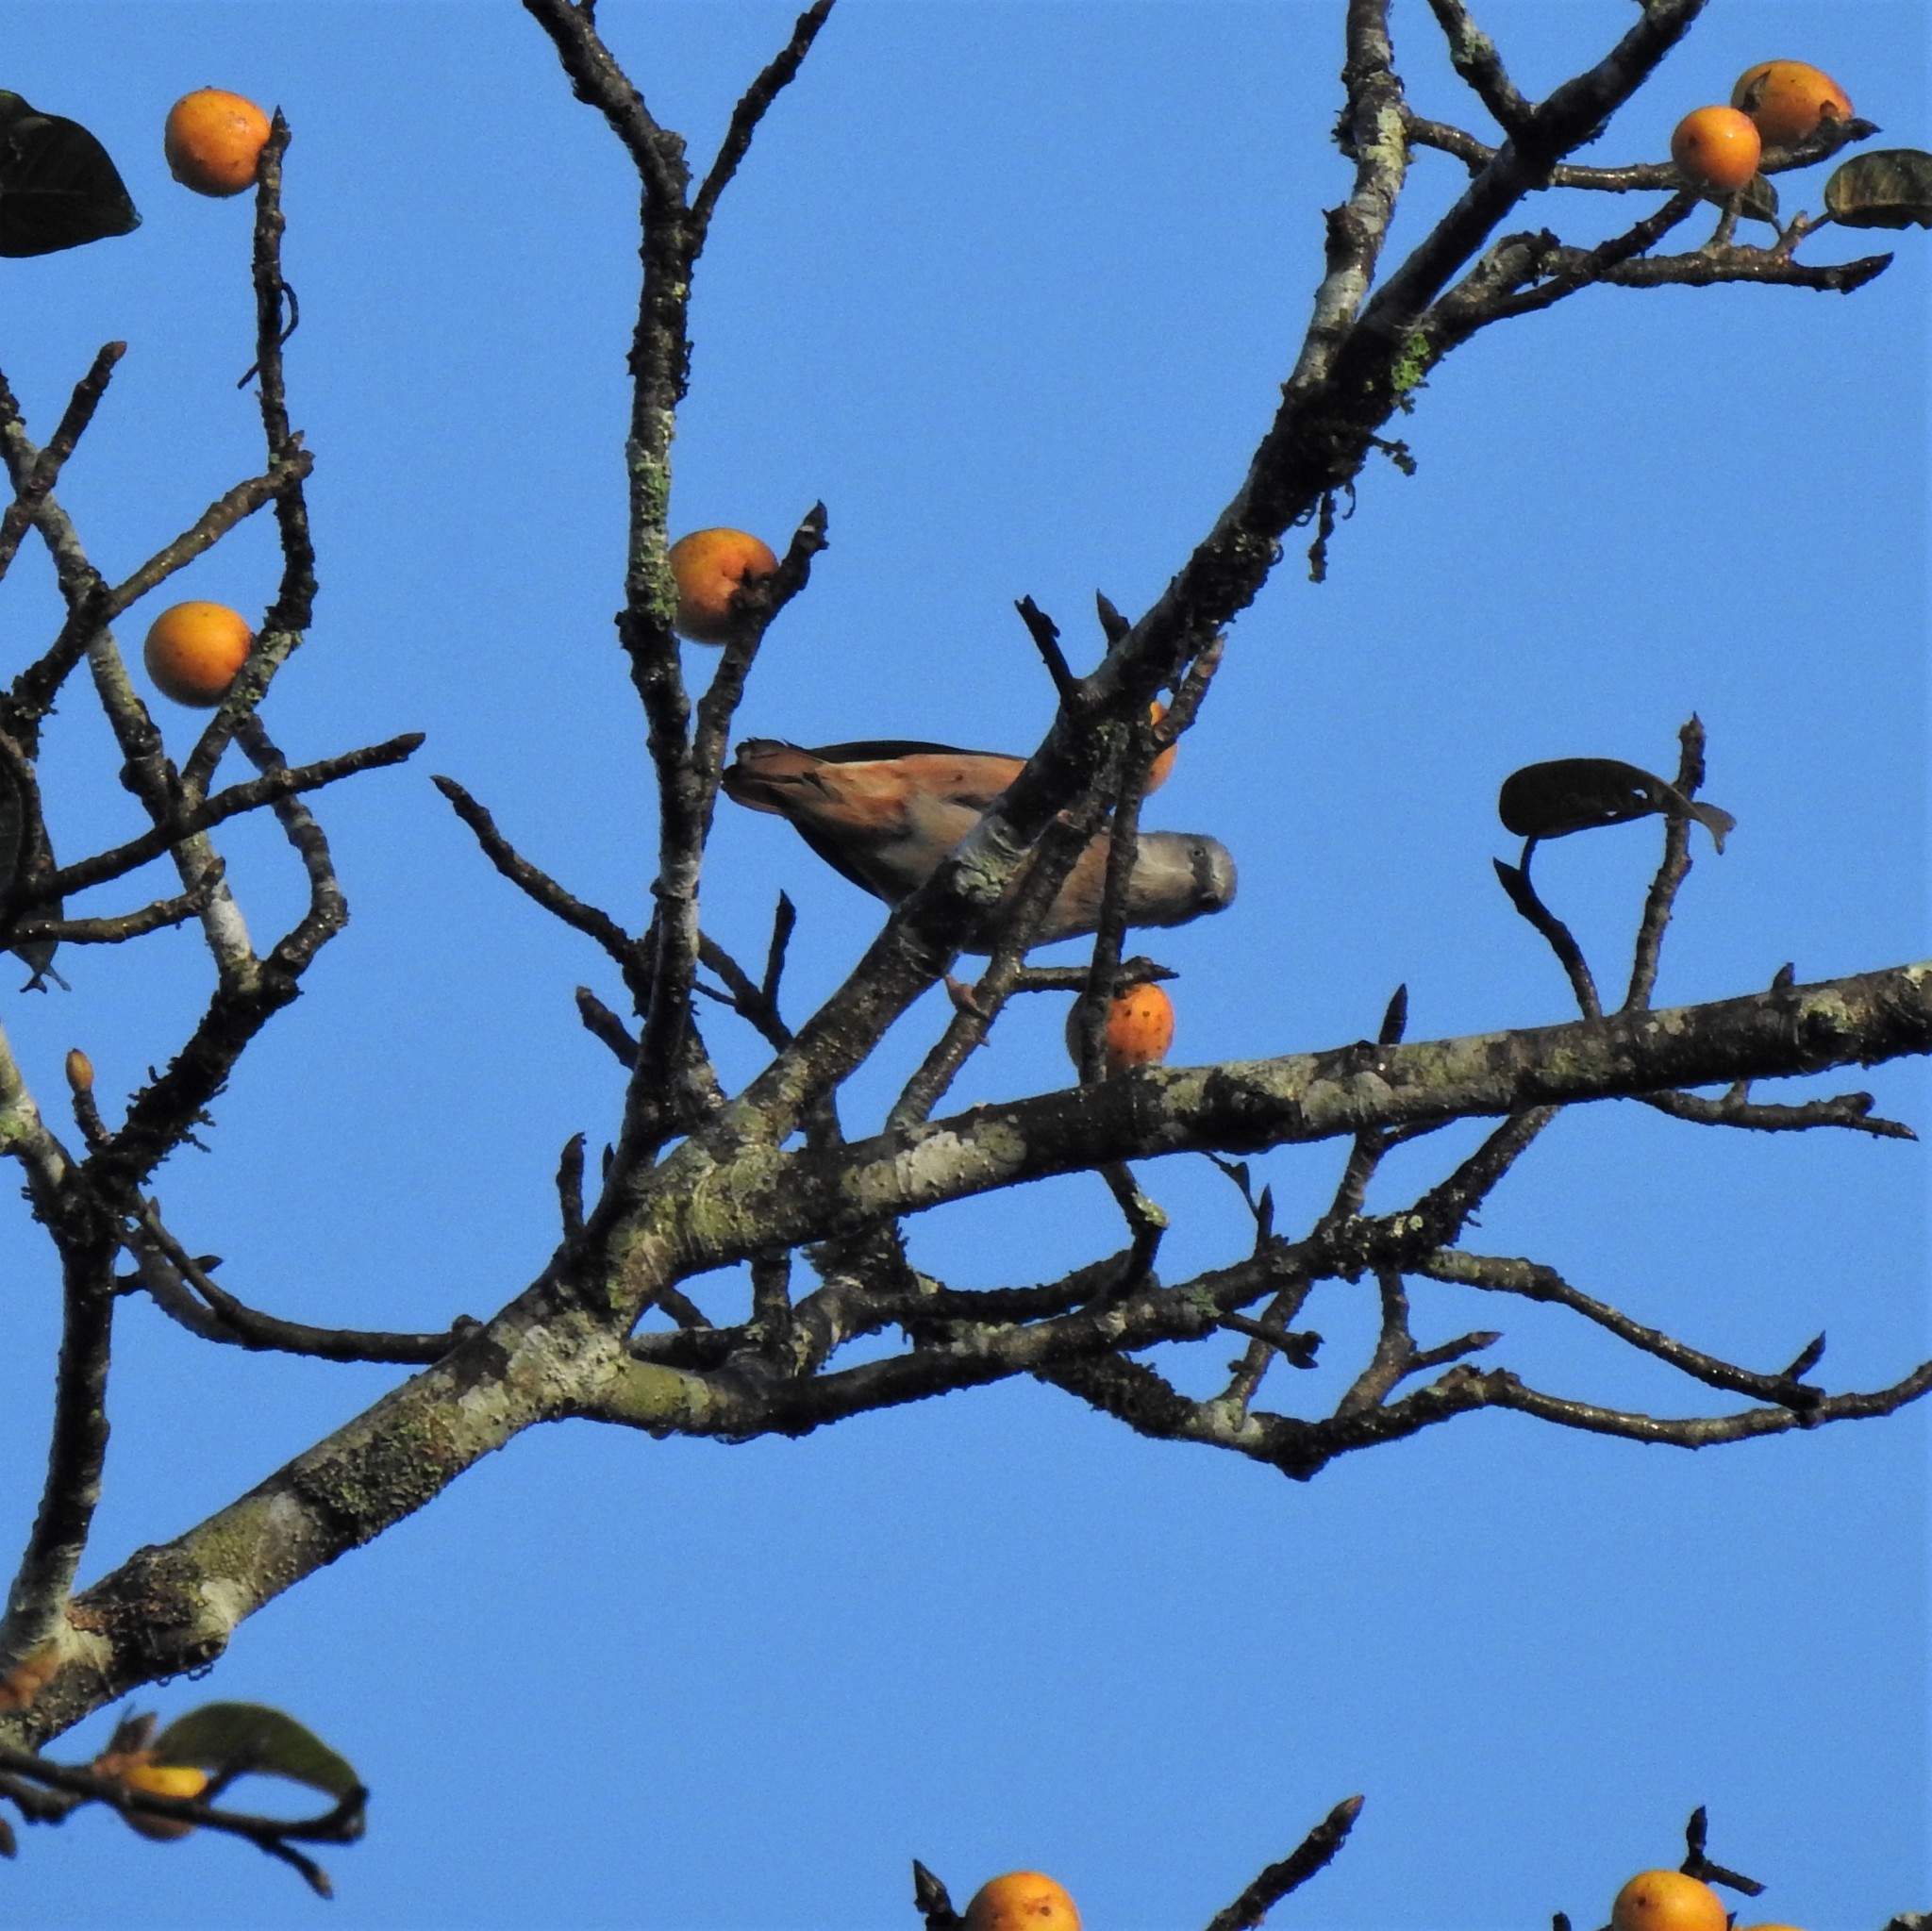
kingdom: Animalia
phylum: Chordata
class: Aves
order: Passeriformes
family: Sturnidae
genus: Sturnia
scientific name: Sturnia malabarica
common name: Chestnut-tailed starling
